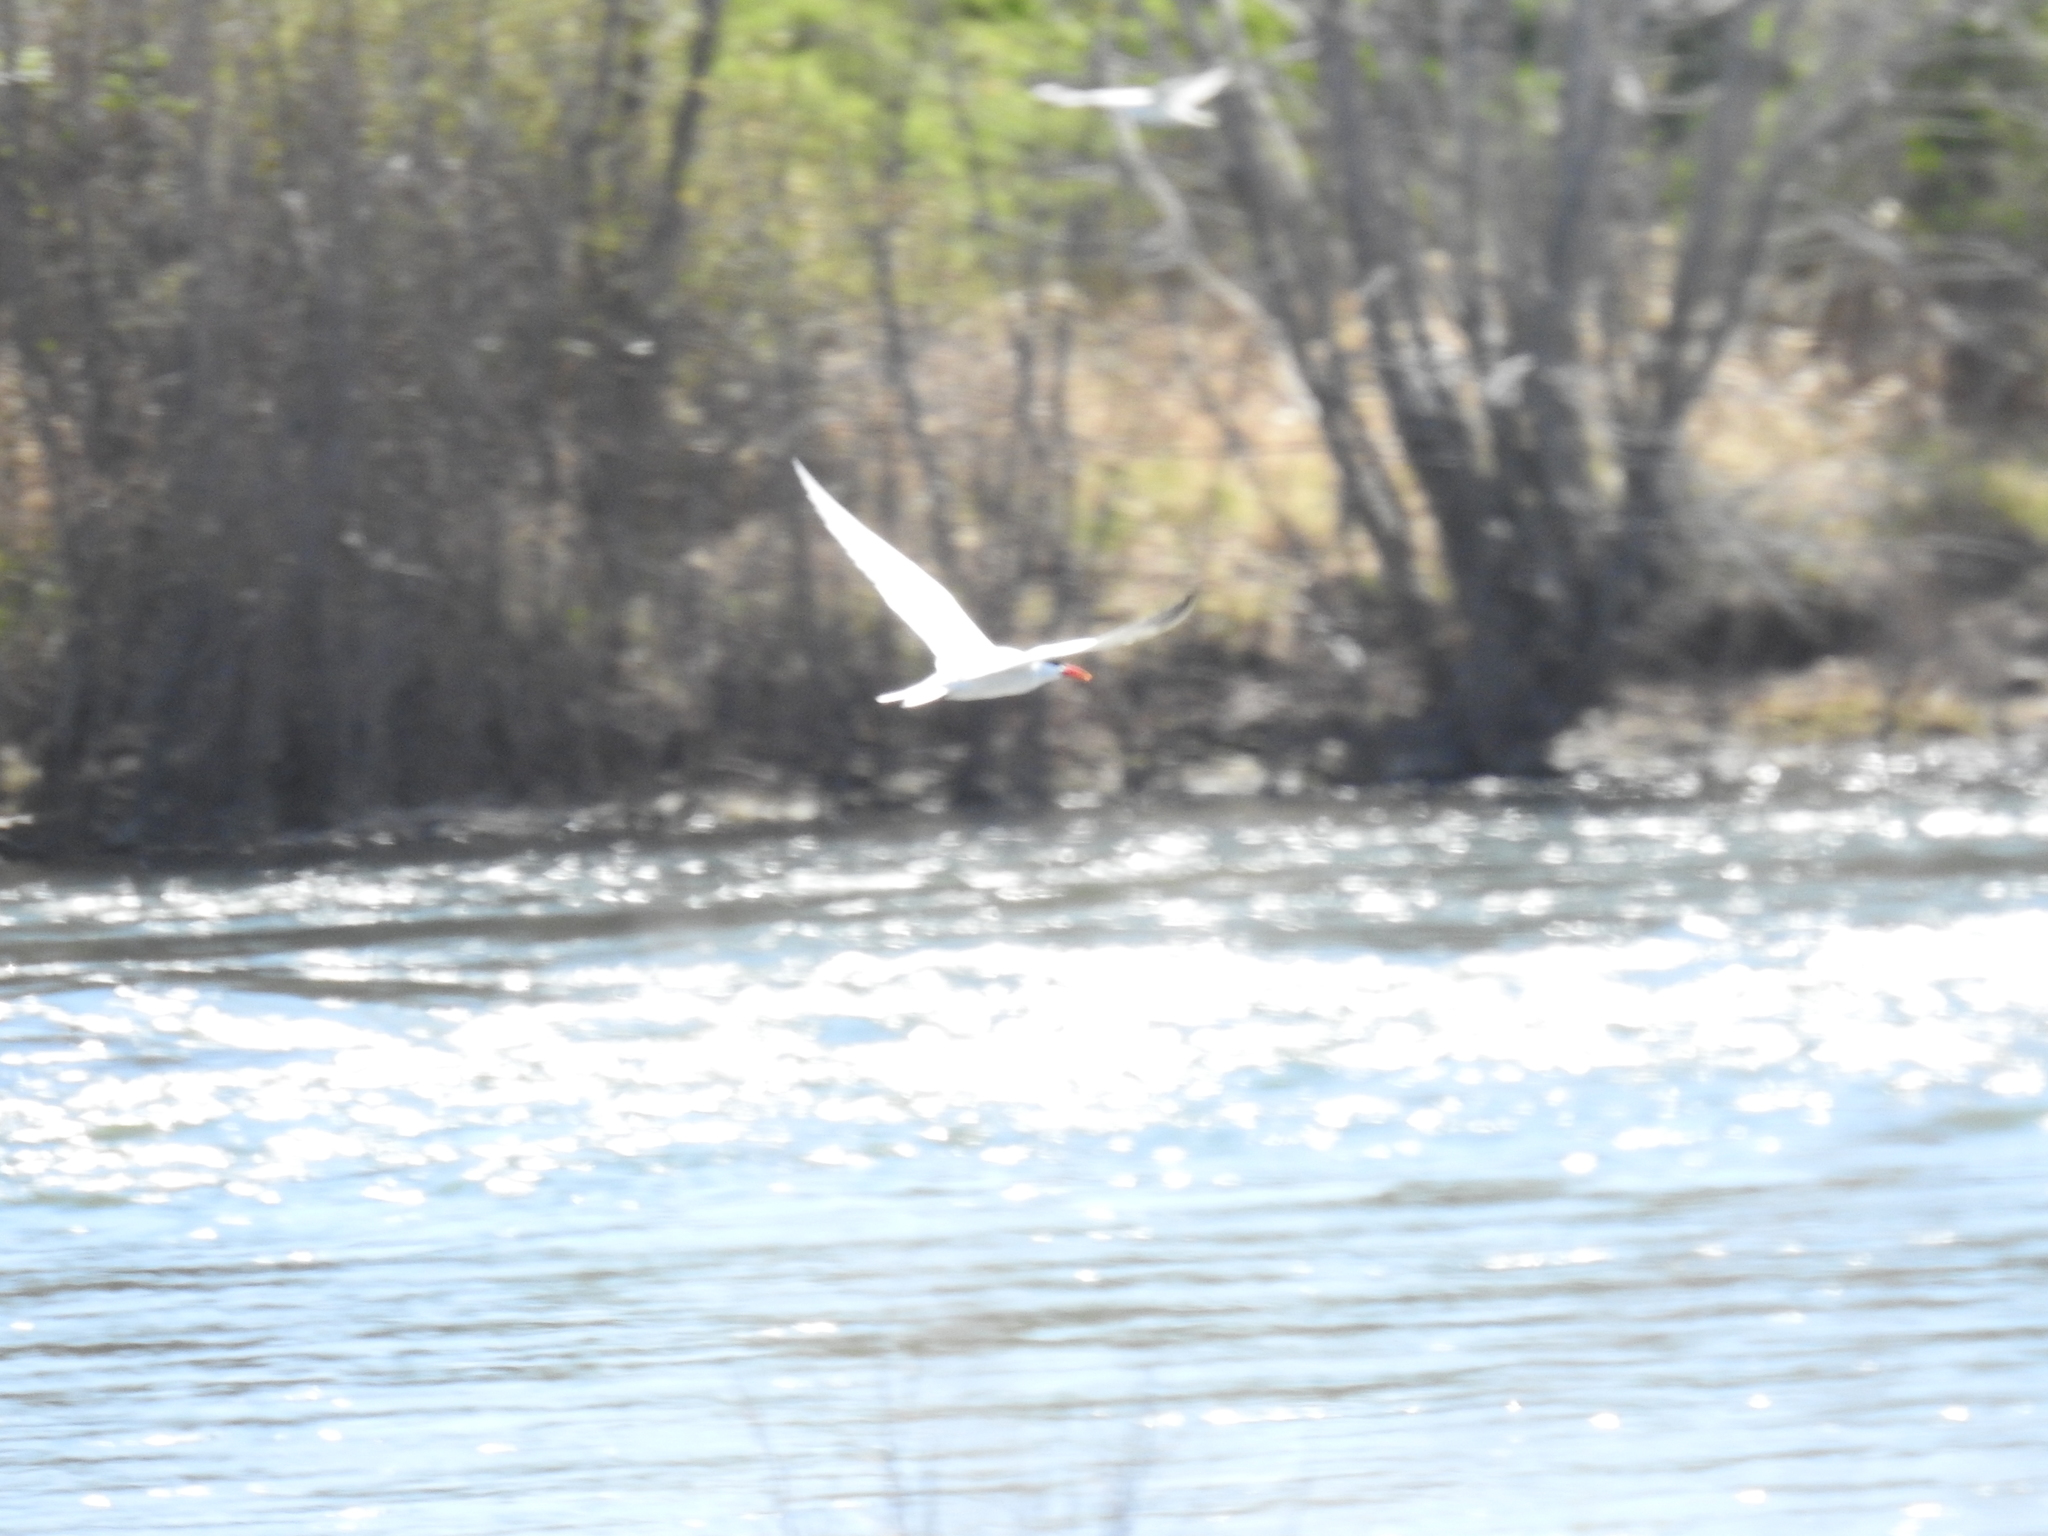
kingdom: Animalia
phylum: Chordata
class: Aves
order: Charadriiformes
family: Laridae
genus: Hydroprogne
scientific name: Hydroprogne caspia
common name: Caspian tern
